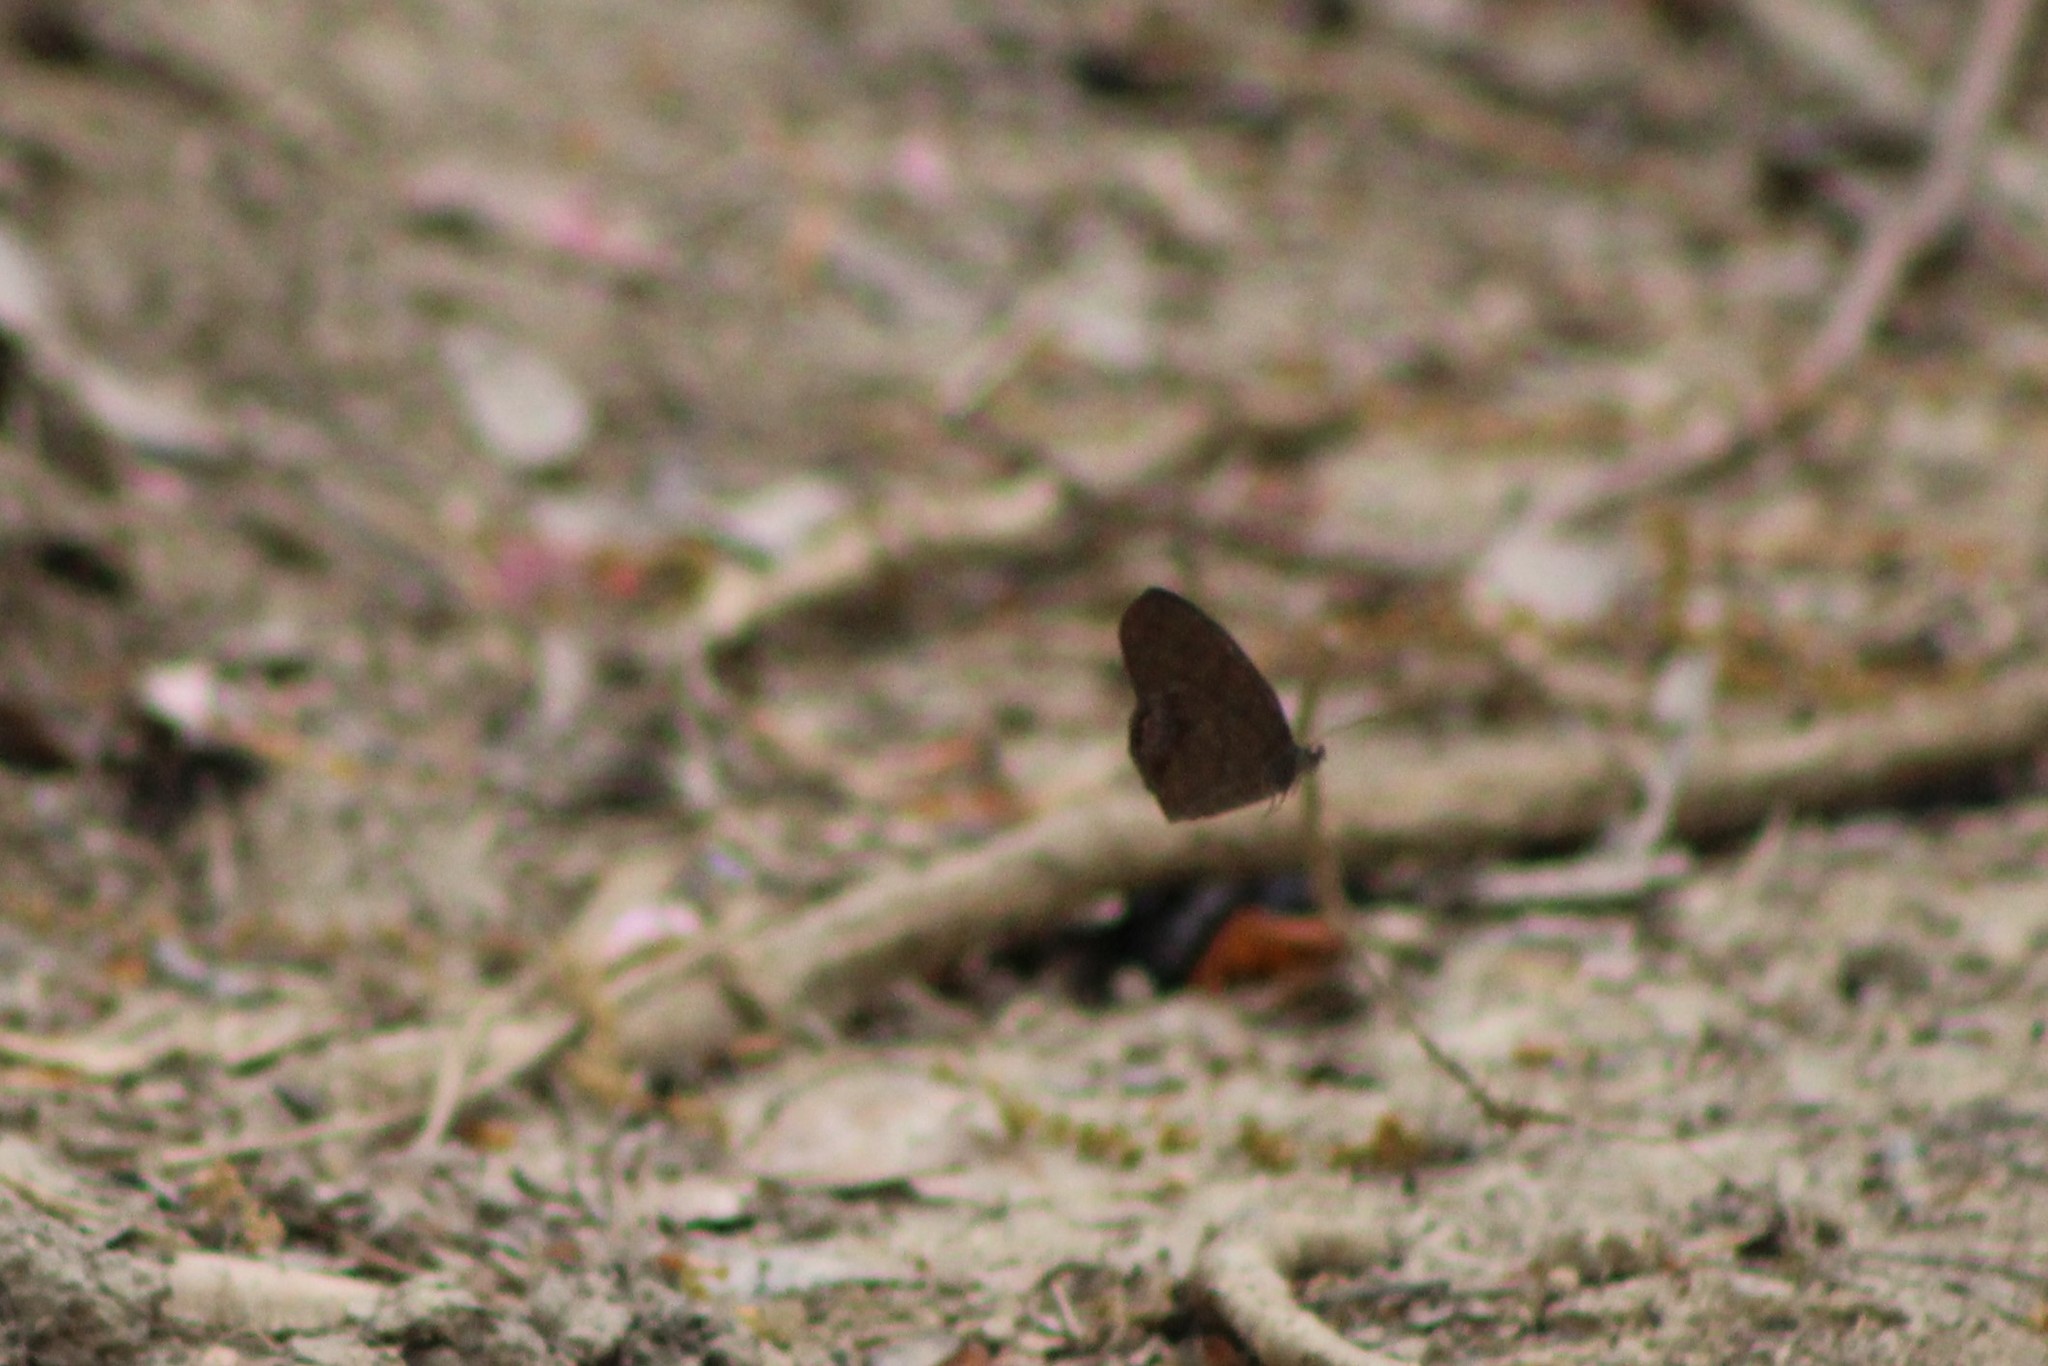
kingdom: Animalia
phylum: Arthropoda
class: Insecta
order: Lepidoptera
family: Nymphalidae
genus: Euptychia
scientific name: Euptychia cornelius
